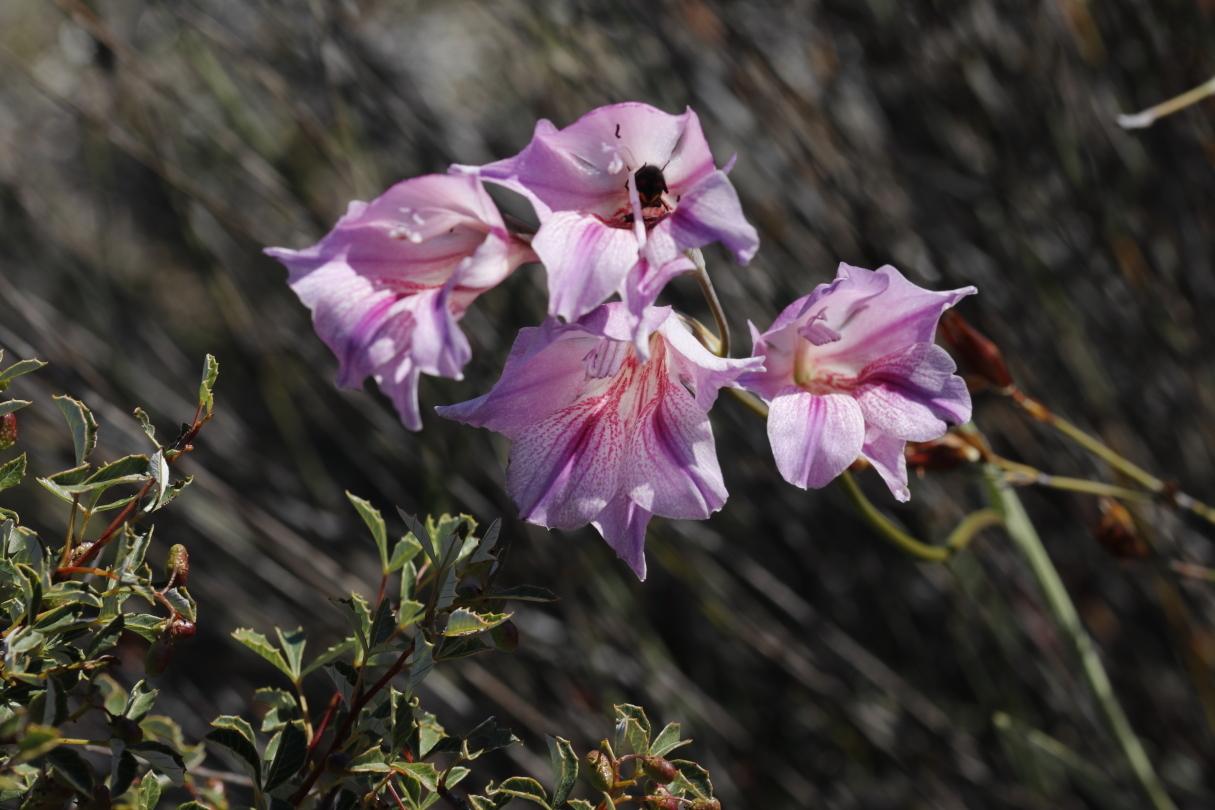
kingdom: Plantae
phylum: Tracheophyta
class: Liliopsida
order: Asparagales
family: Iridaceae
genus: Gladiolus
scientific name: Gladiolus caryophyllaceus
